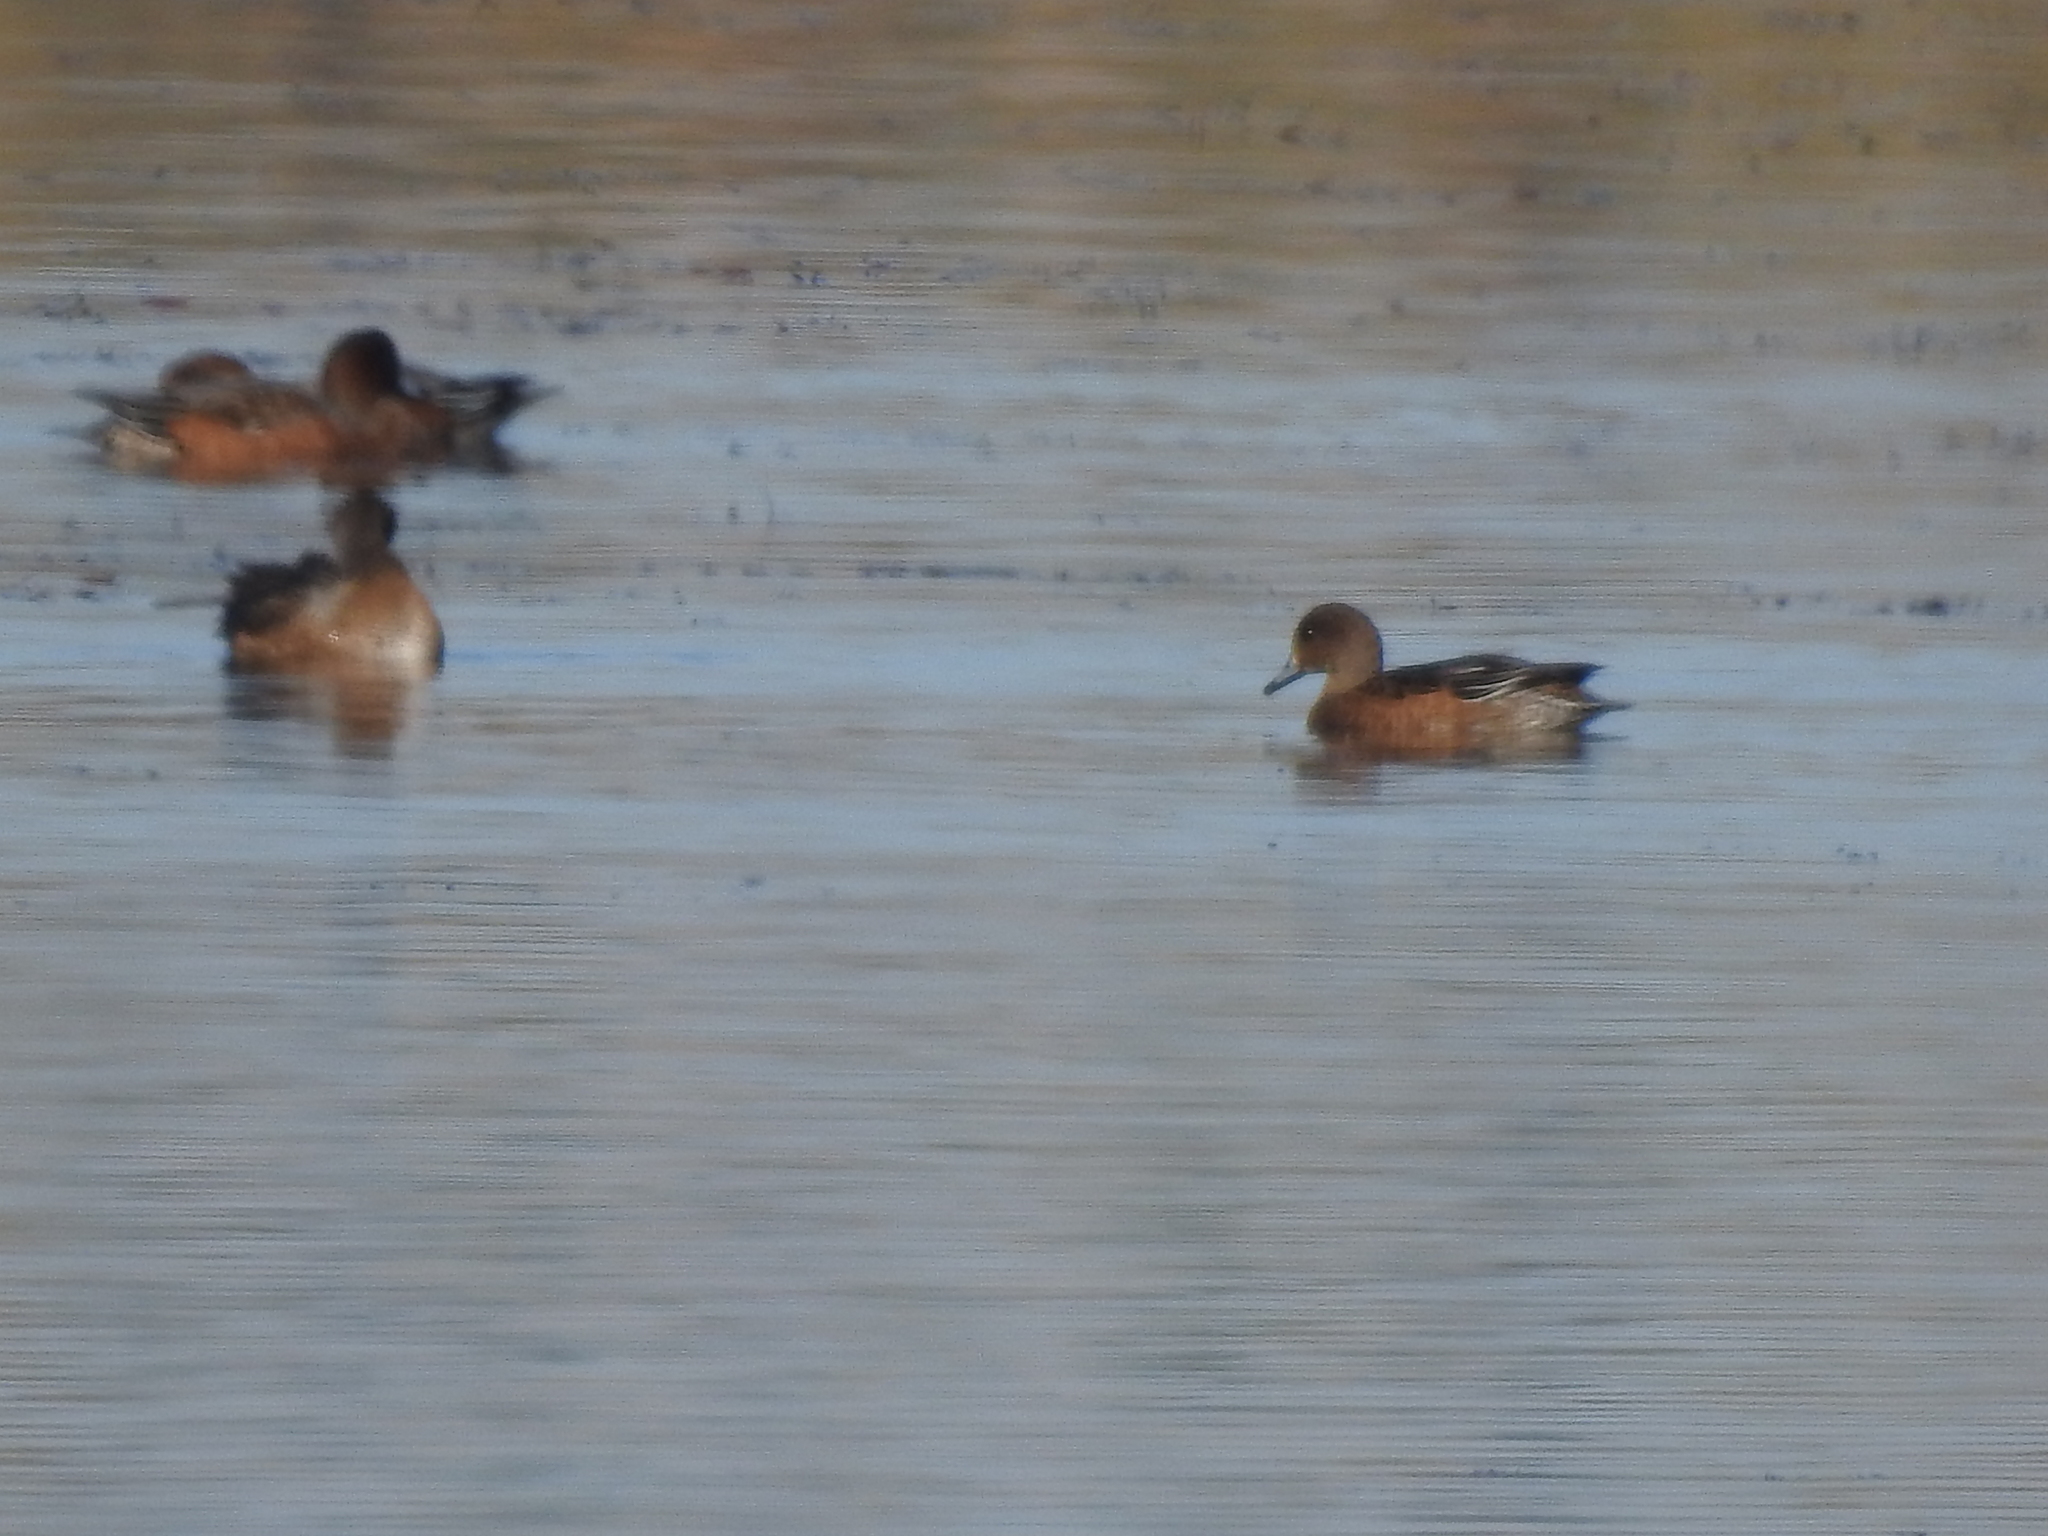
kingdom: Animalia
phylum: Chordata
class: Aves
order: Anseriformes
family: Anatidae
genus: Mareca
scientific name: Mareca penelope
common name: Eurasian wigeon
